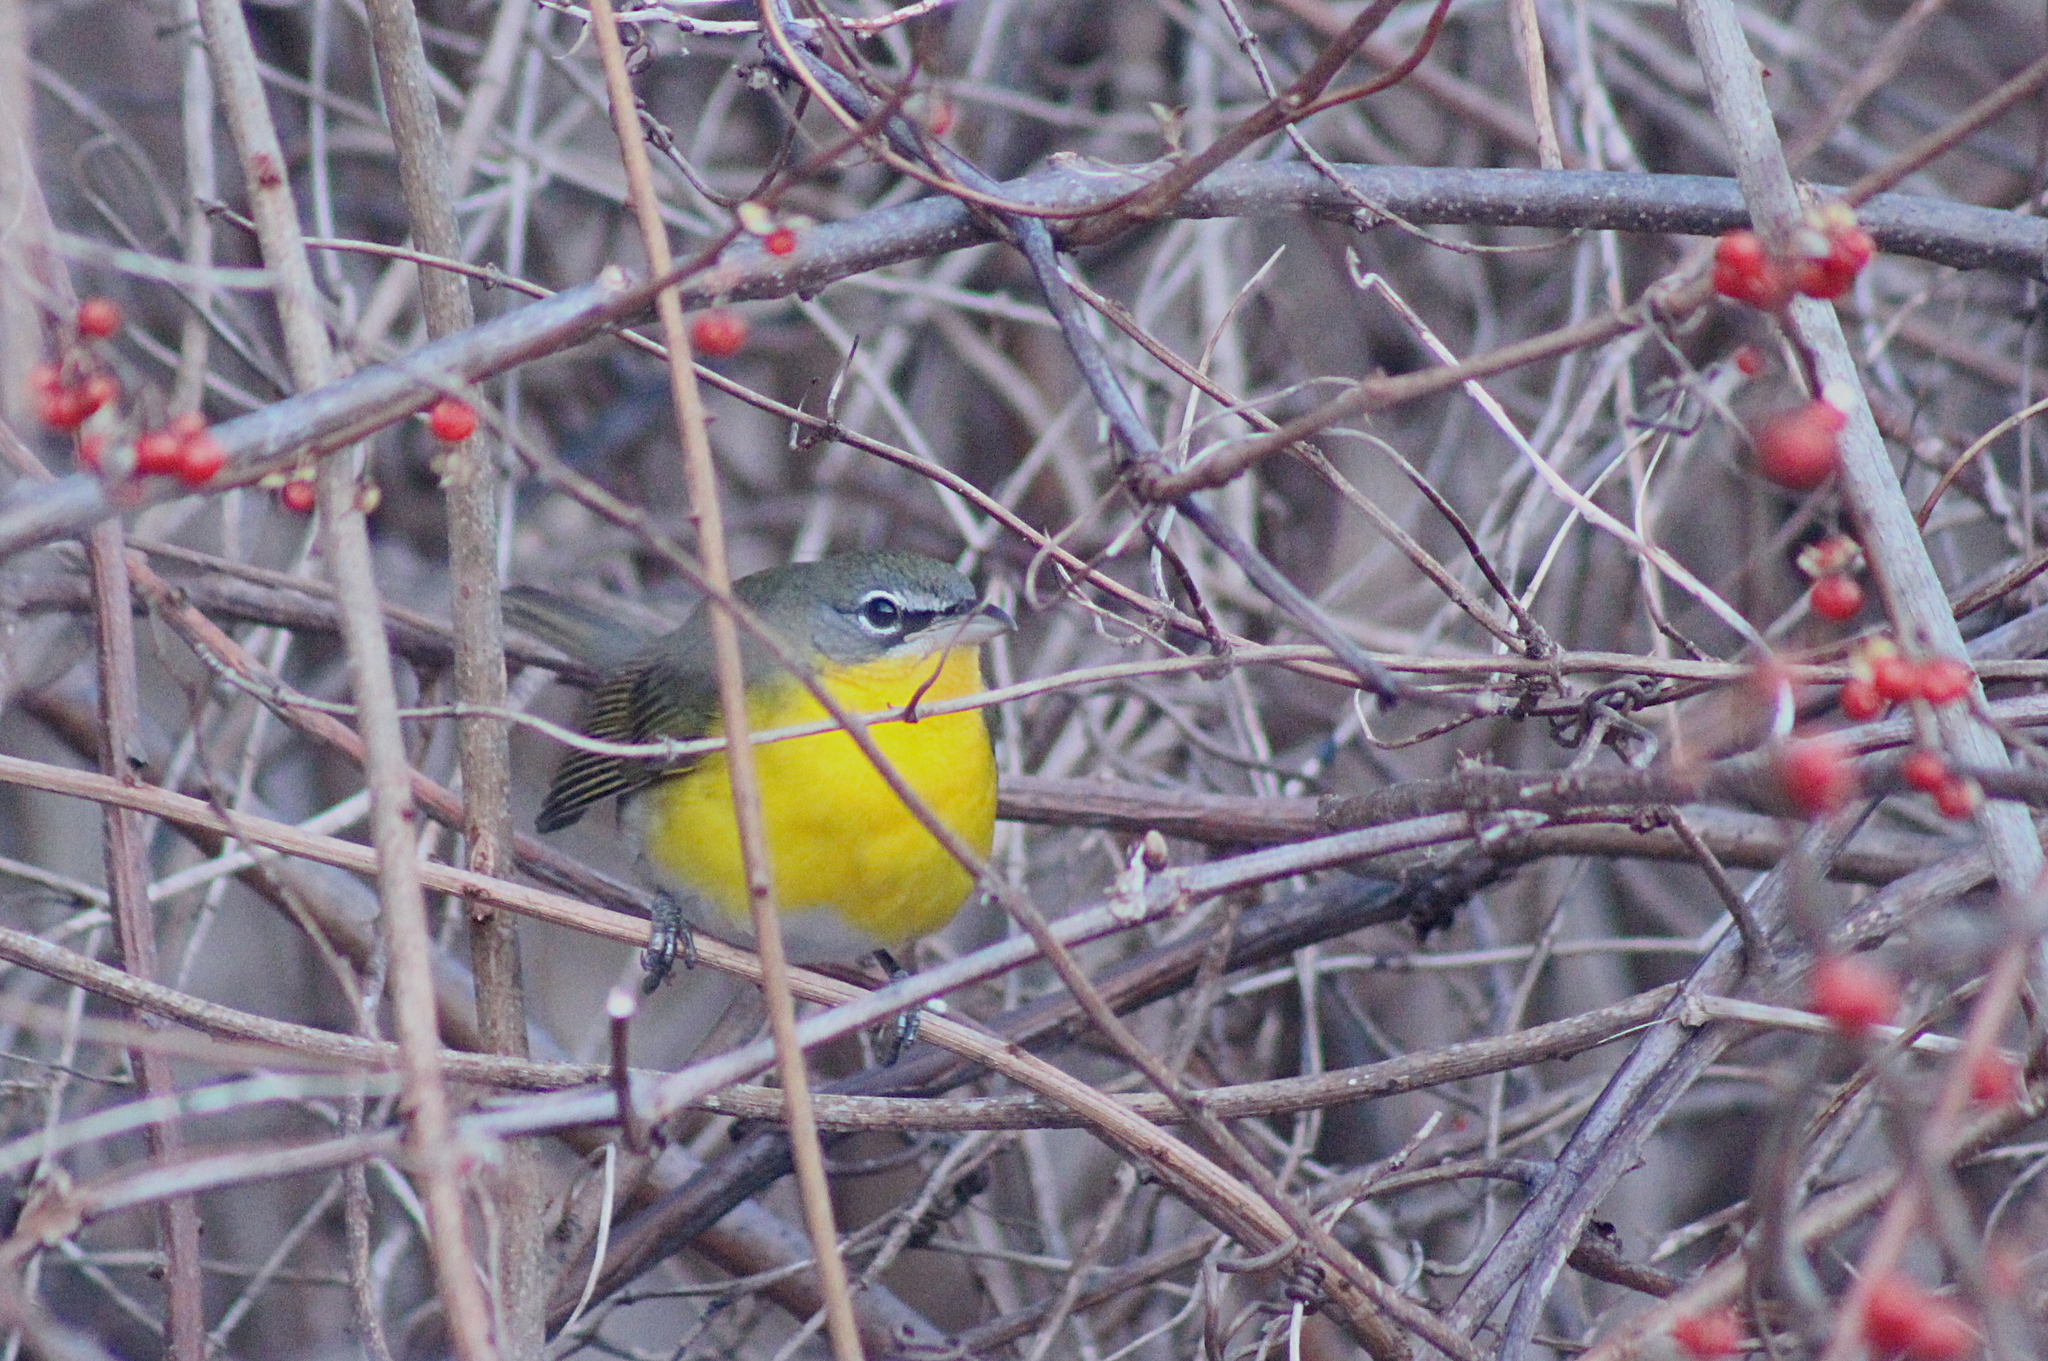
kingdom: Animalia
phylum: Chordata
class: Aves
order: Passeriformes
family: Parulidae
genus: Icteria
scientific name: Icteria virens
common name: Yellow-breasted chat
